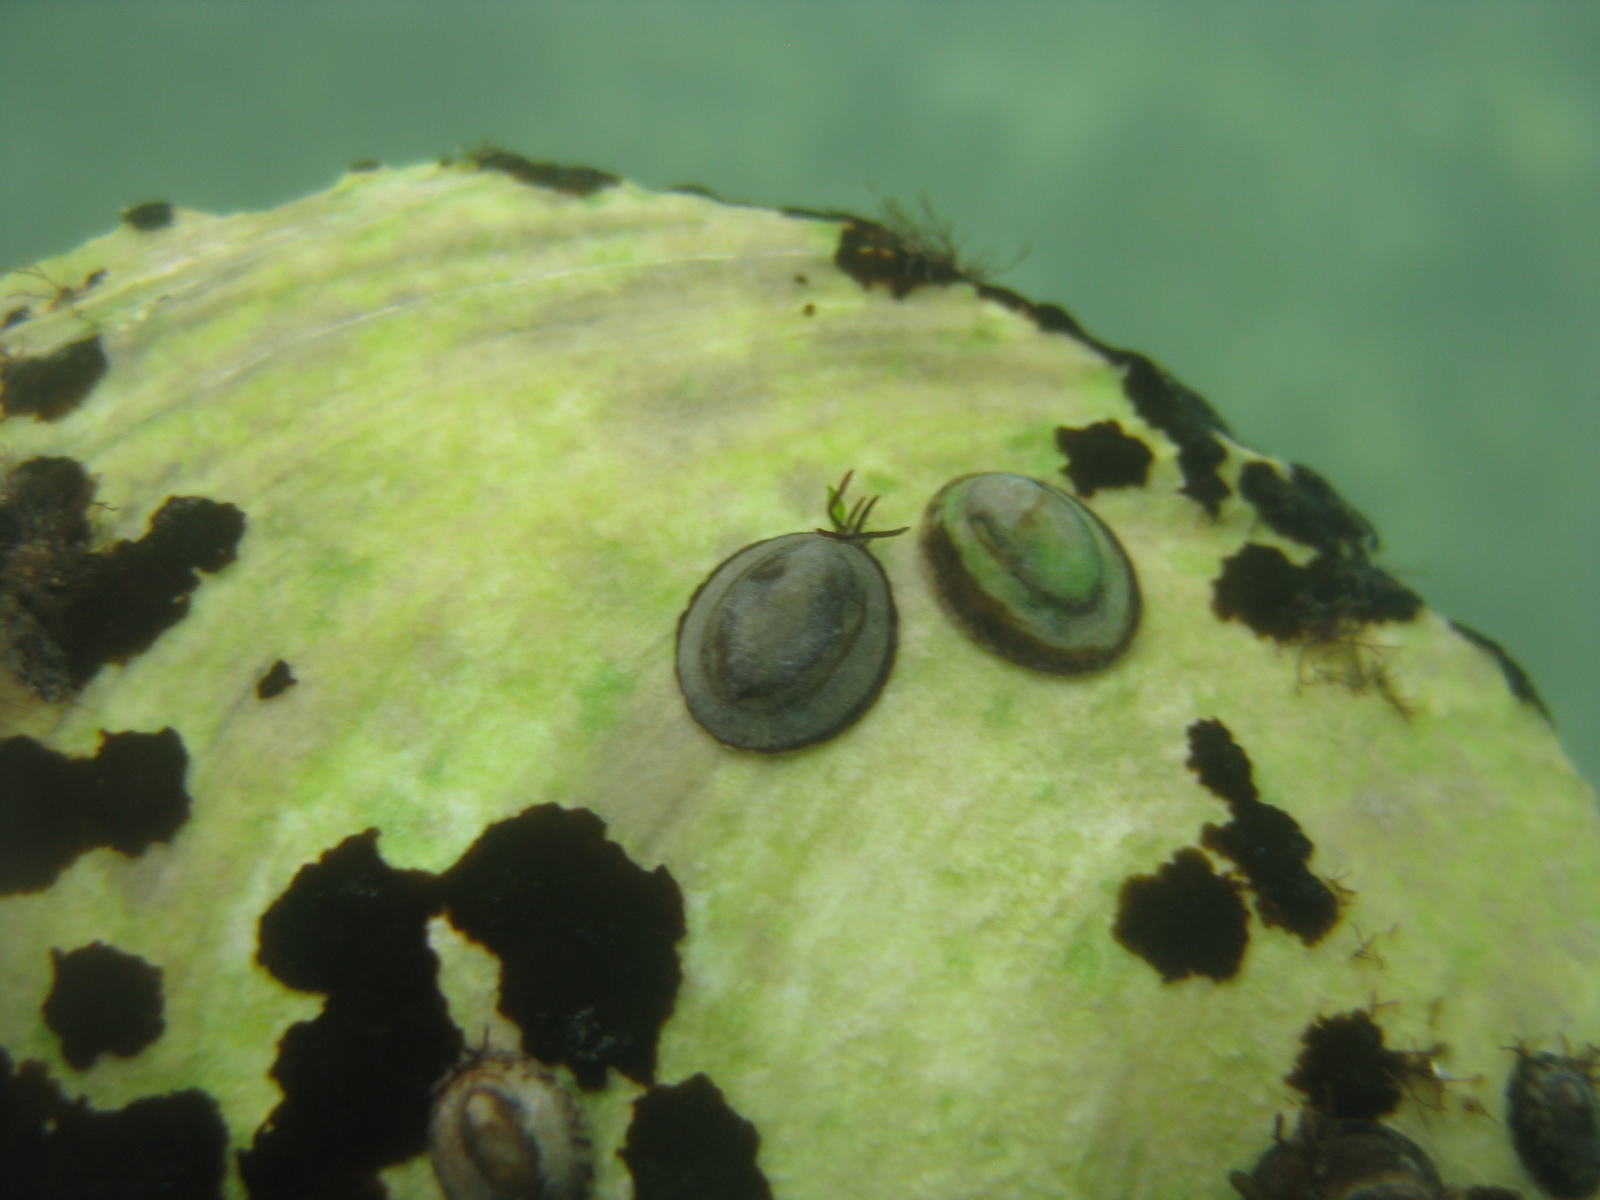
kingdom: Animalia
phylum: Mollusca
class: Gastropoda
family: Lottiidae
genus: Notoacmea
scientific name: Notoacmea potae
